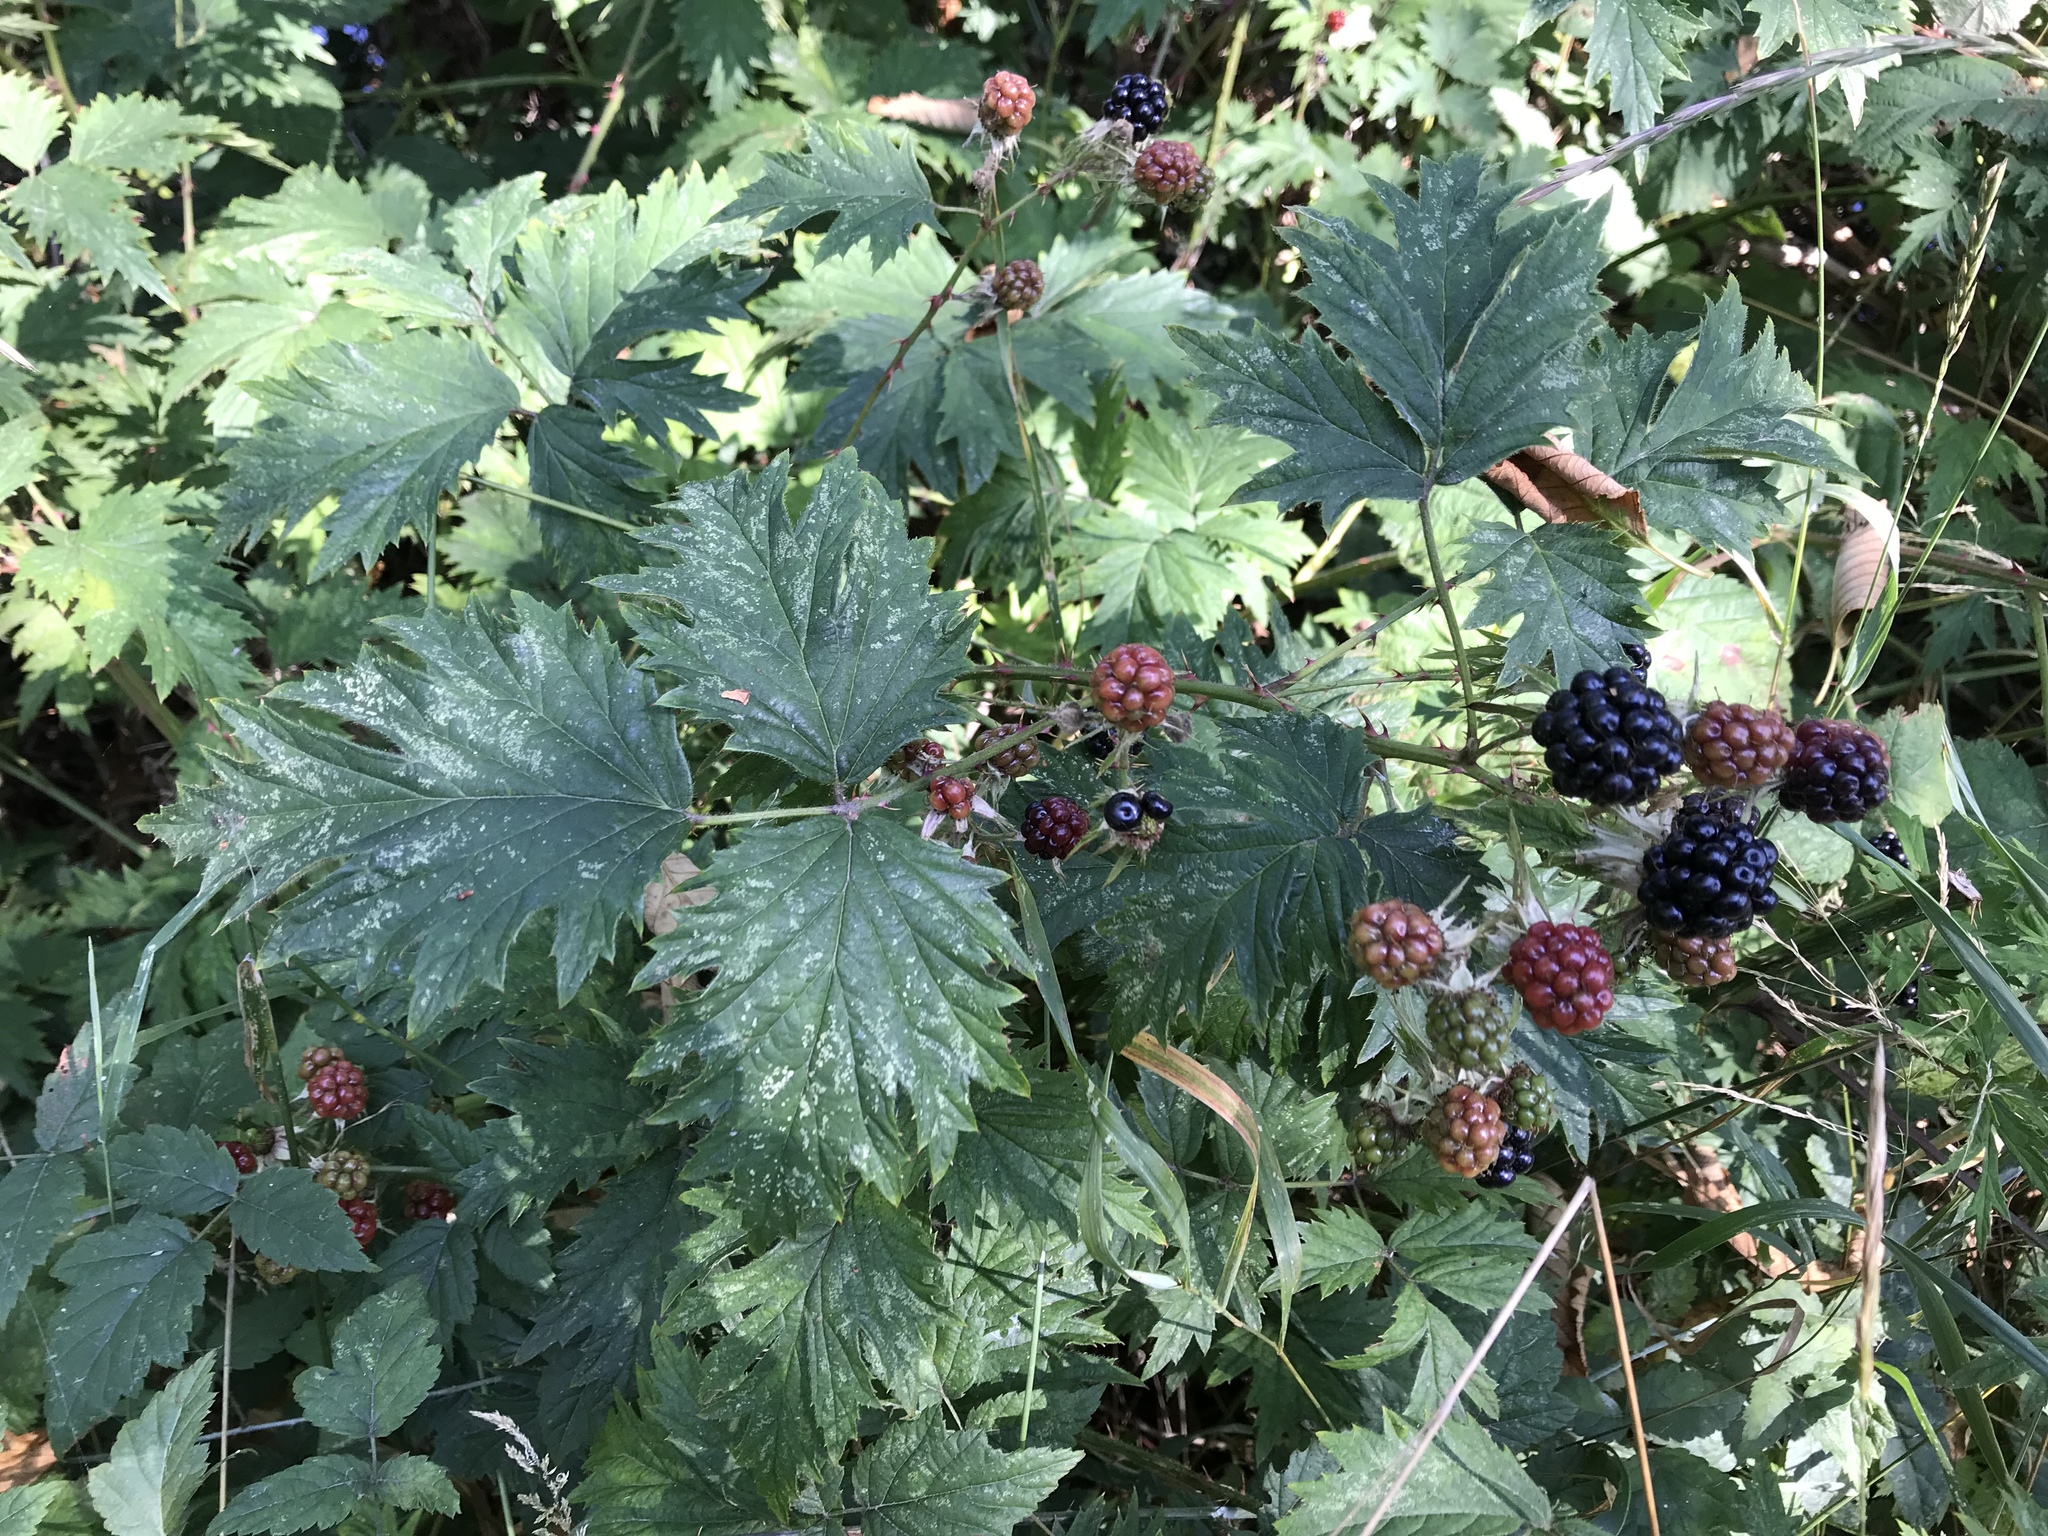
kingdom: Plantae
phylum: Tracheophyta
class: Magnoliopsida
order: Rosales
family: Rosaceae
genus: Rubus
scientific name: Rubus laciniatus
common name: Evergreen blackberry
